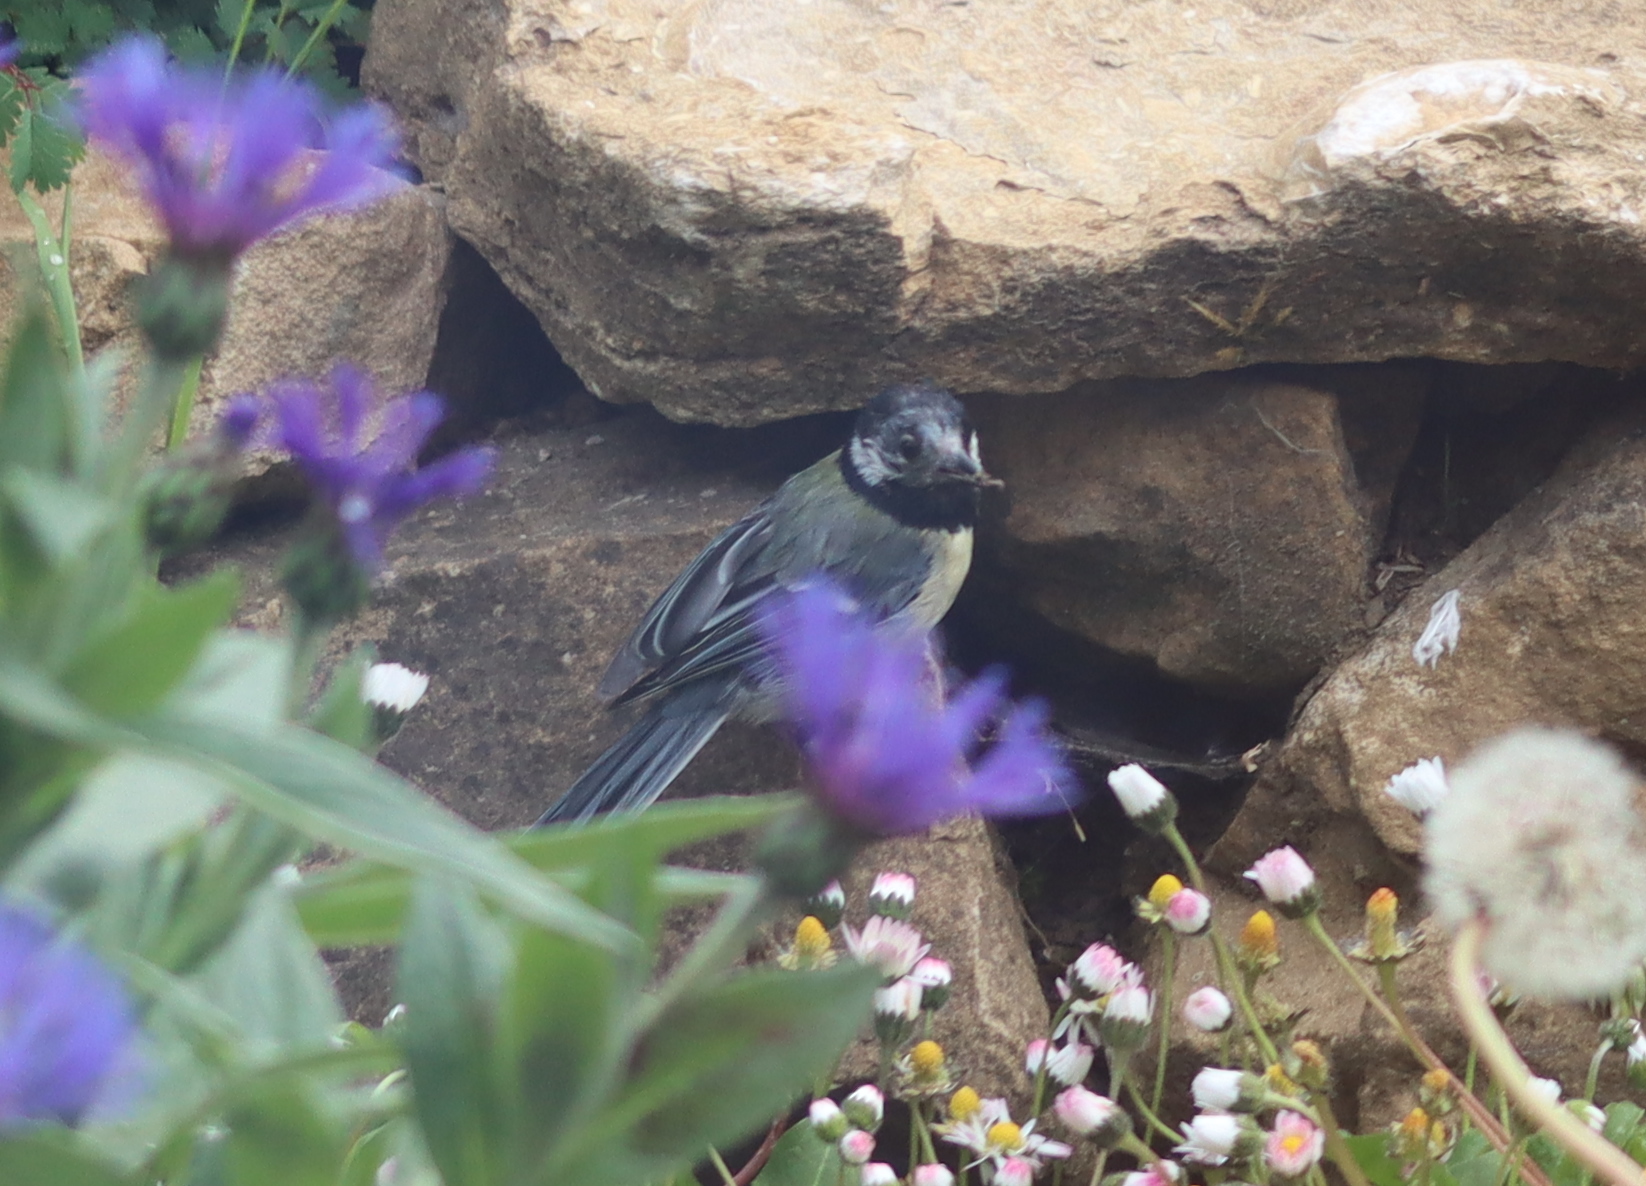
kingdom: Animalia
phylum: Chordata
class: Aves
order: Passeriformes
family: Paridae
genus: Parus
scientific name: Parus major
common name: Great tit
